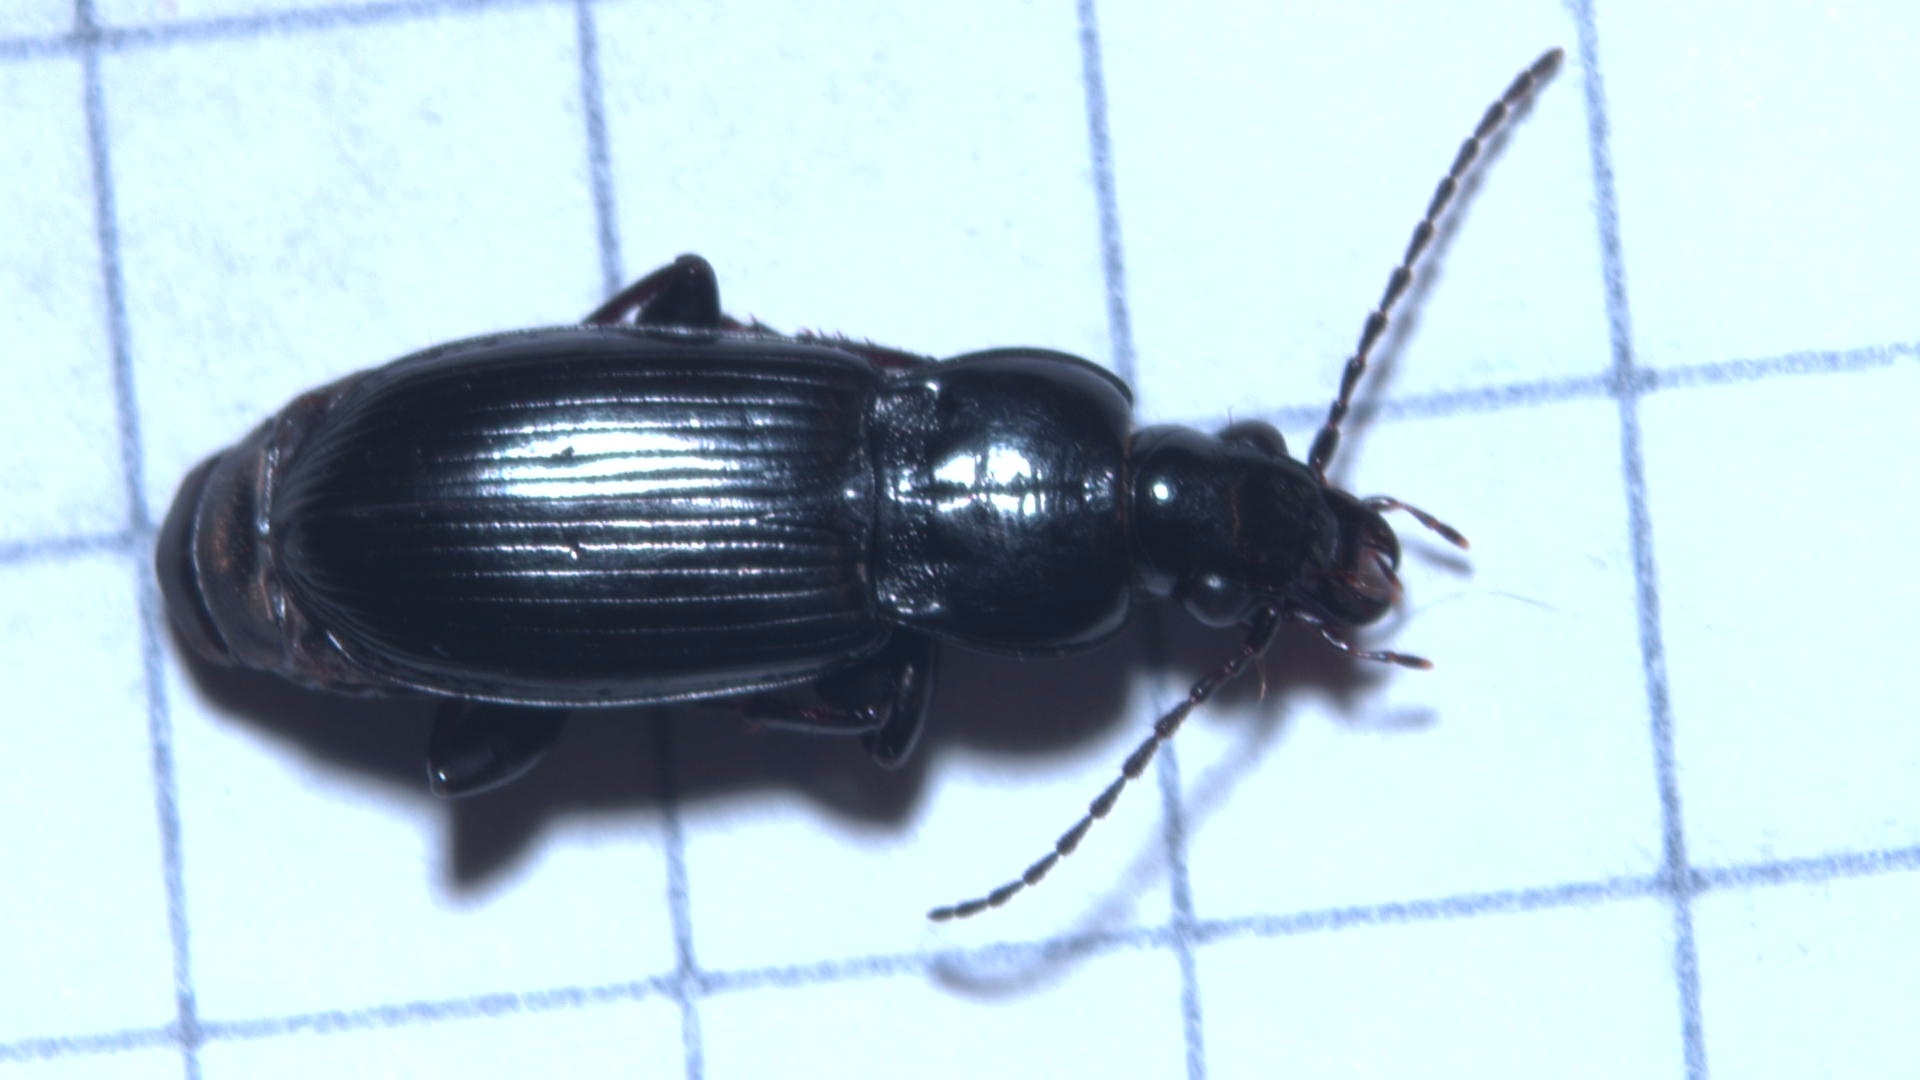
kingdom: Animalia
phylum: Arthropoda
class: Insecta
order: Coleoptera
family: Carabidae
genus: Pterostichus
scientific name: Pterostichus anthracinus
